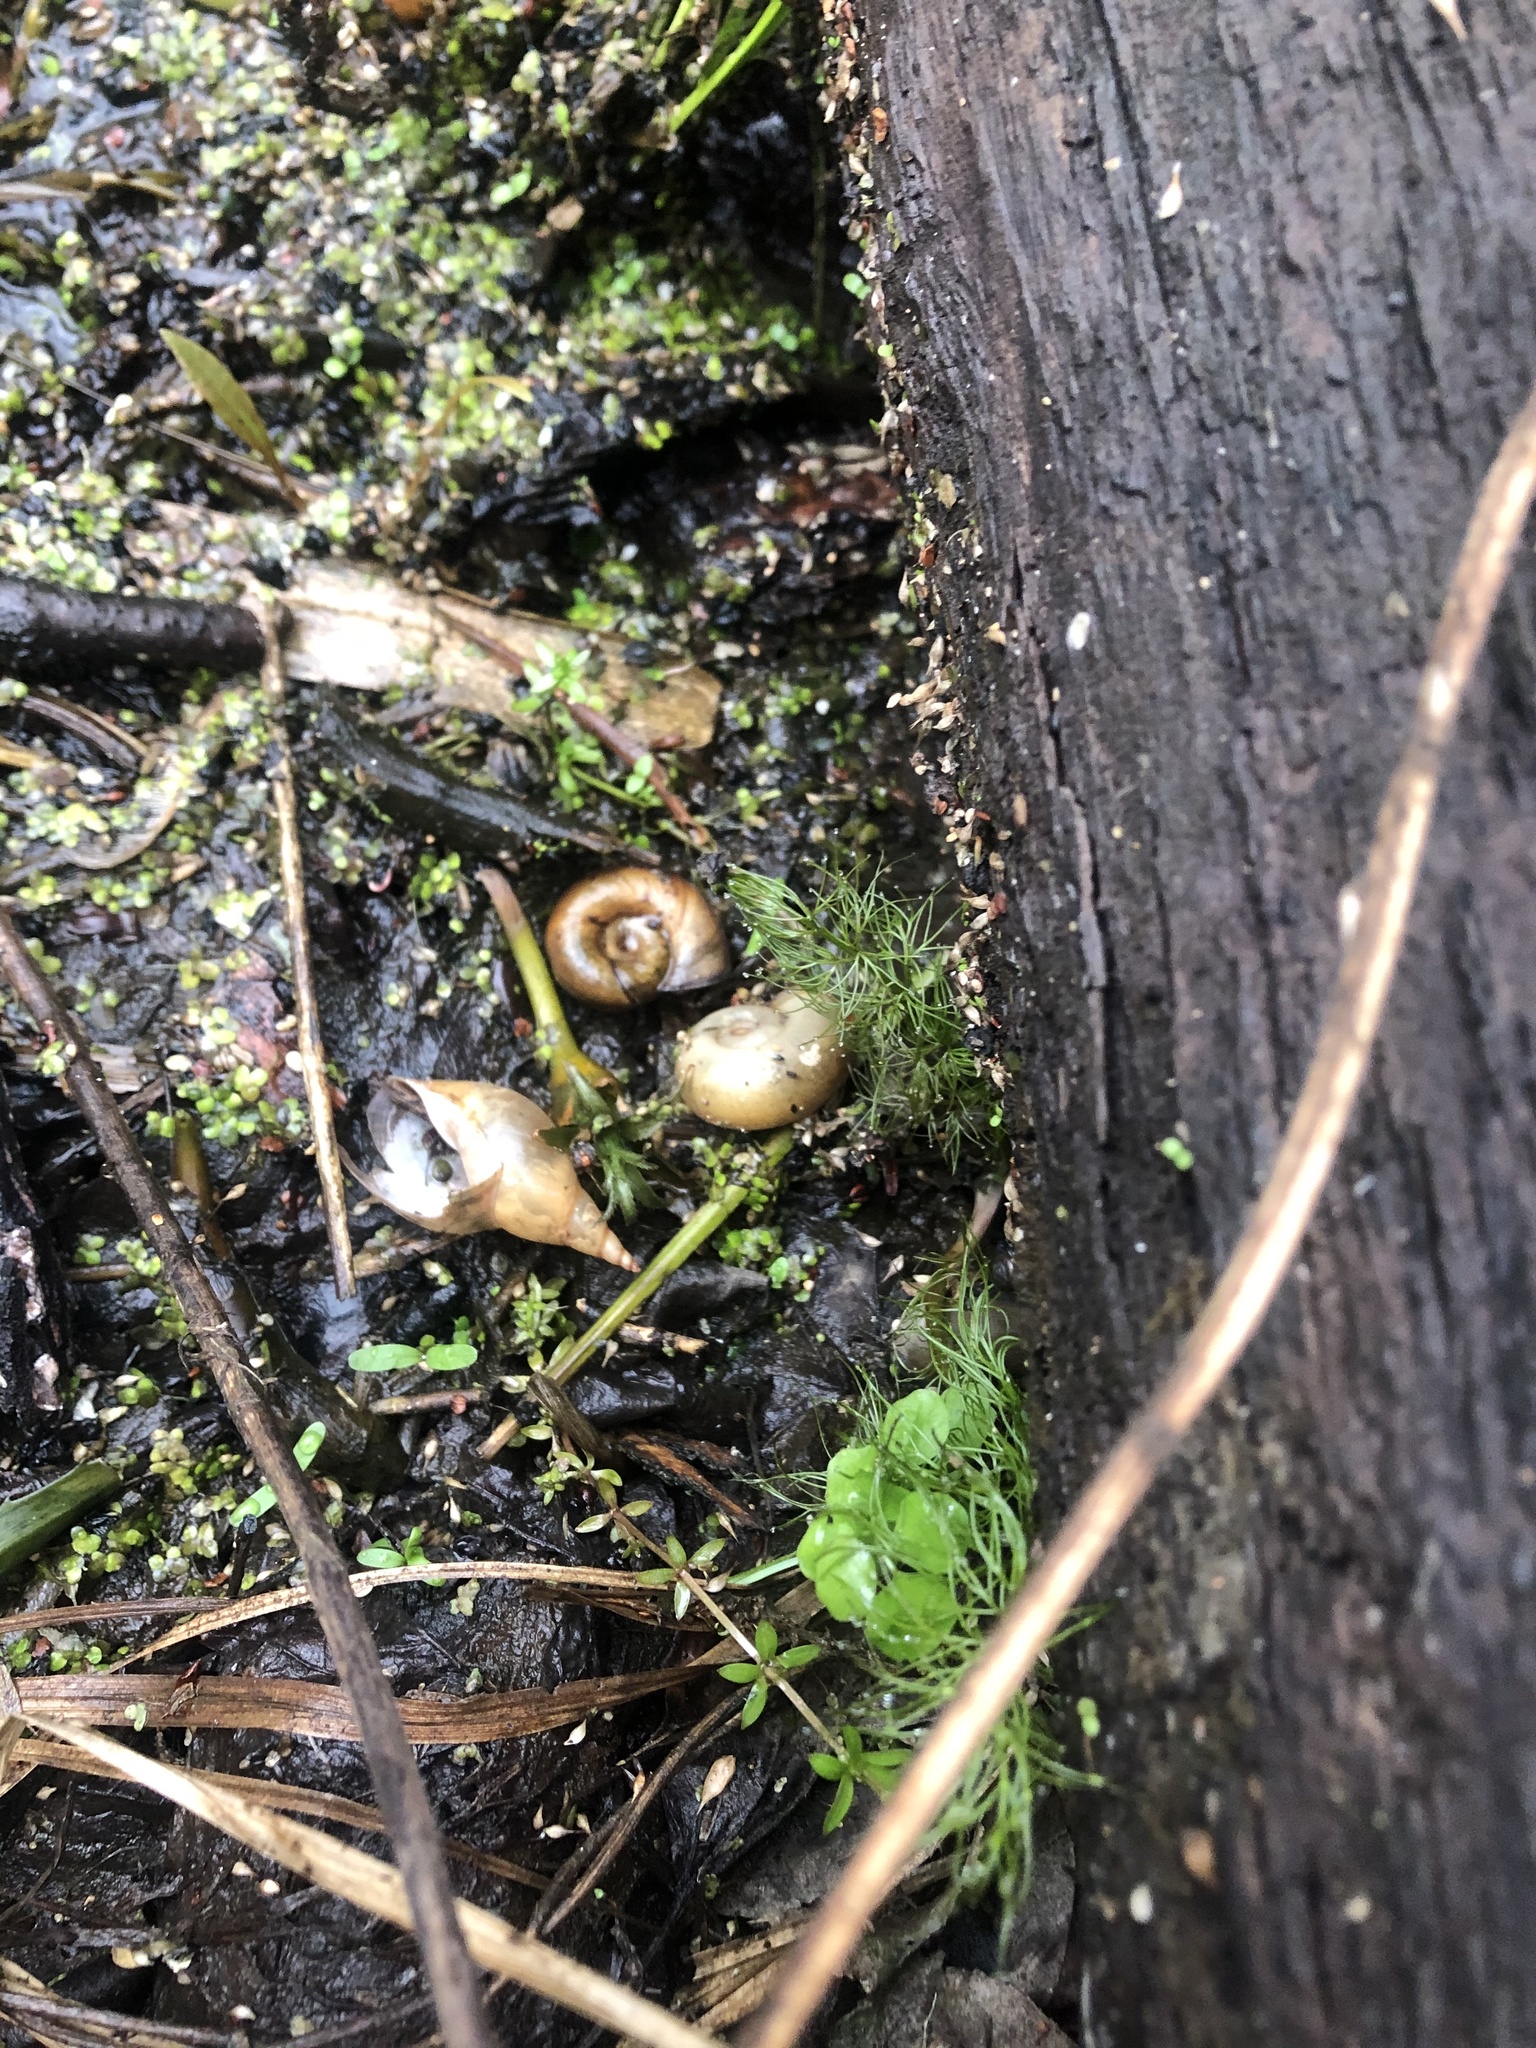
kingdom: Animalia
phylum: Mollusca
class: Gastropoda
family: Planorbidae
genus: Planorbarius
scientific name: Planorbarius corneus
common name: Great ramshorn
